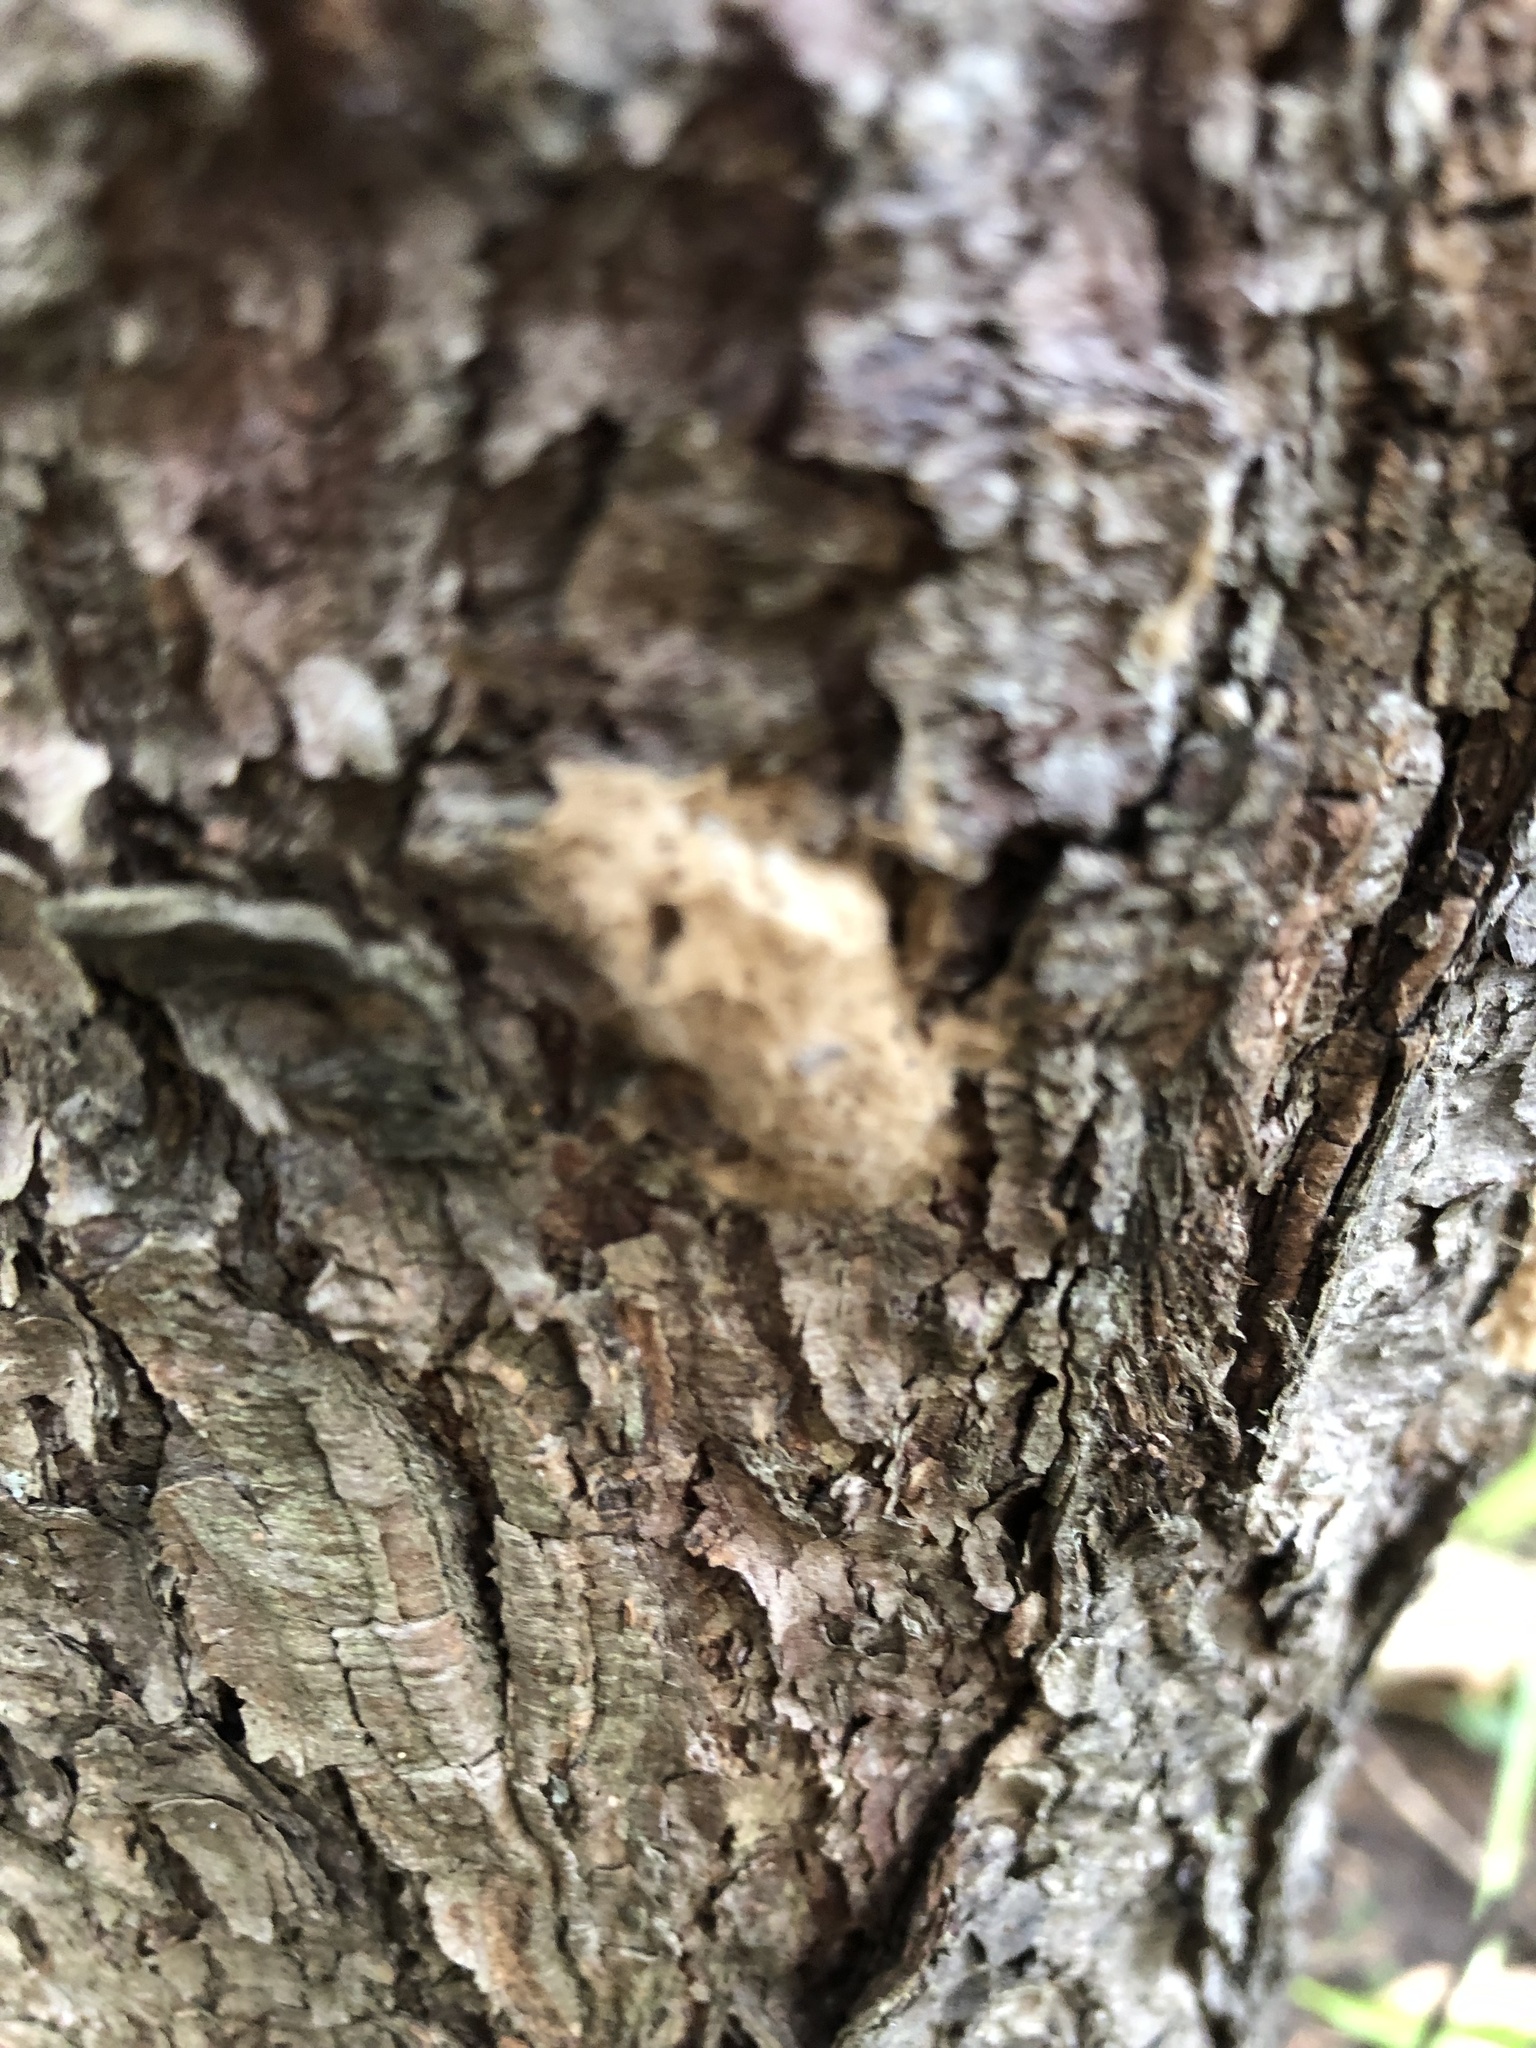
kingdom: Animalia
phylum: Arthropoda
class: Insecta
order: Lepidoptera
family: Erebidae
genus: Lymantria
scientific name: Lymantria dispar
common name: Gypsy moth
